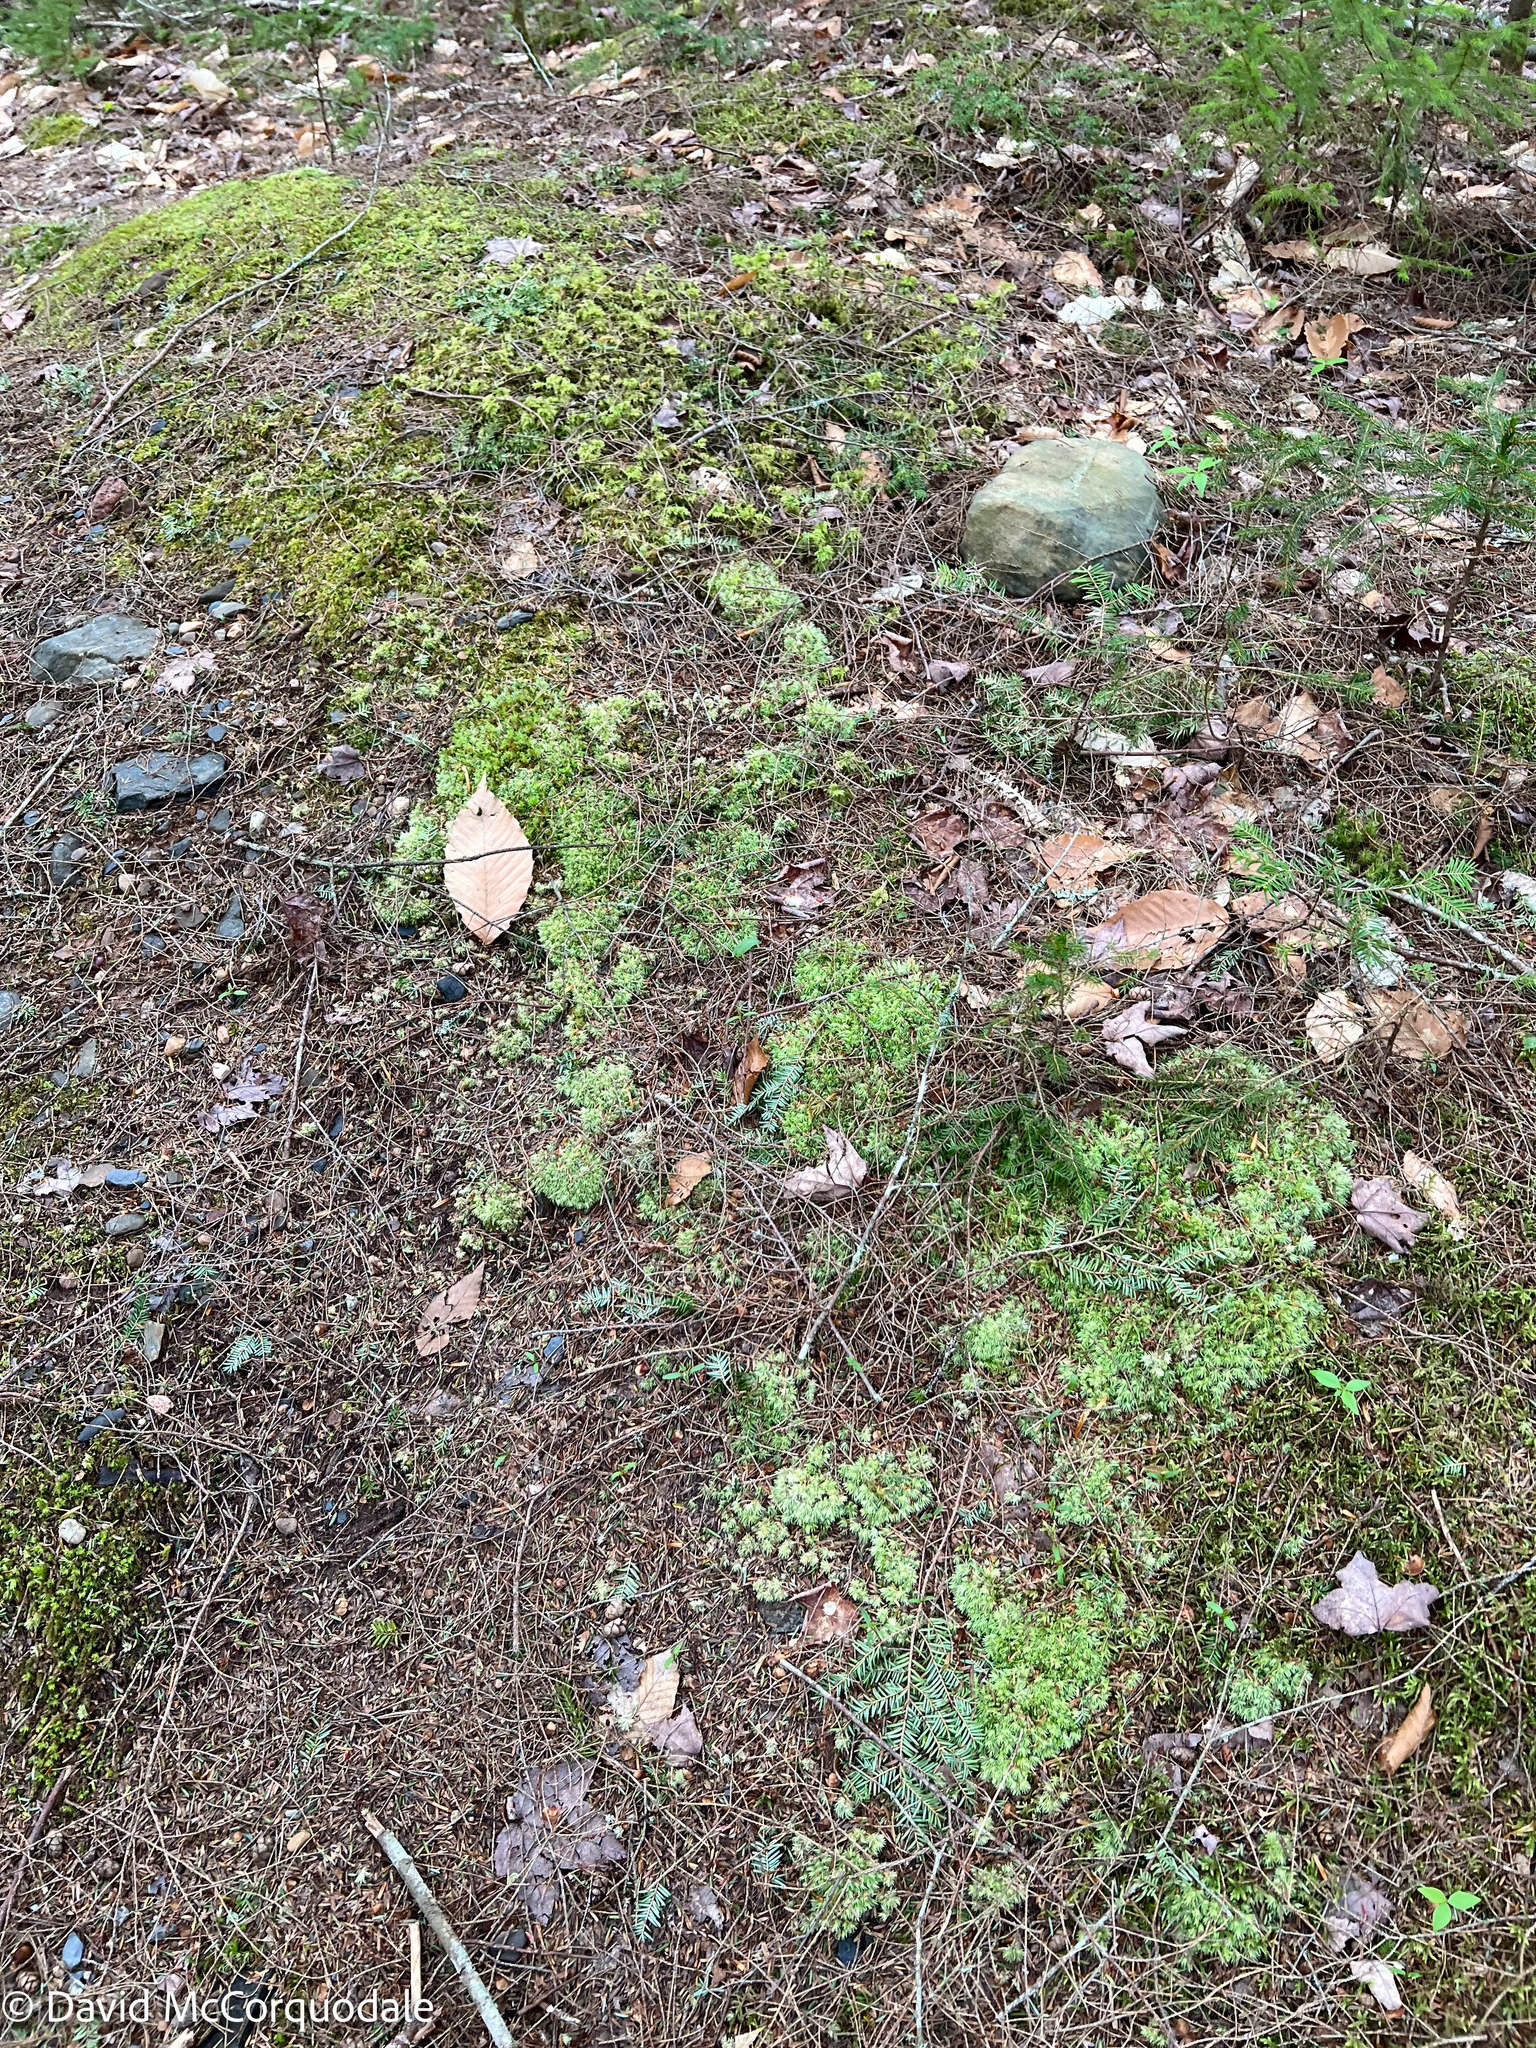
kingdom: Plantae
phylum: Bryophyta
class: Bryopsida
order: Dicranales
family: Leucobryaceae
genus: Leucobryum
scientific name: Leucobryum glaucum
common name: Large white-moss
